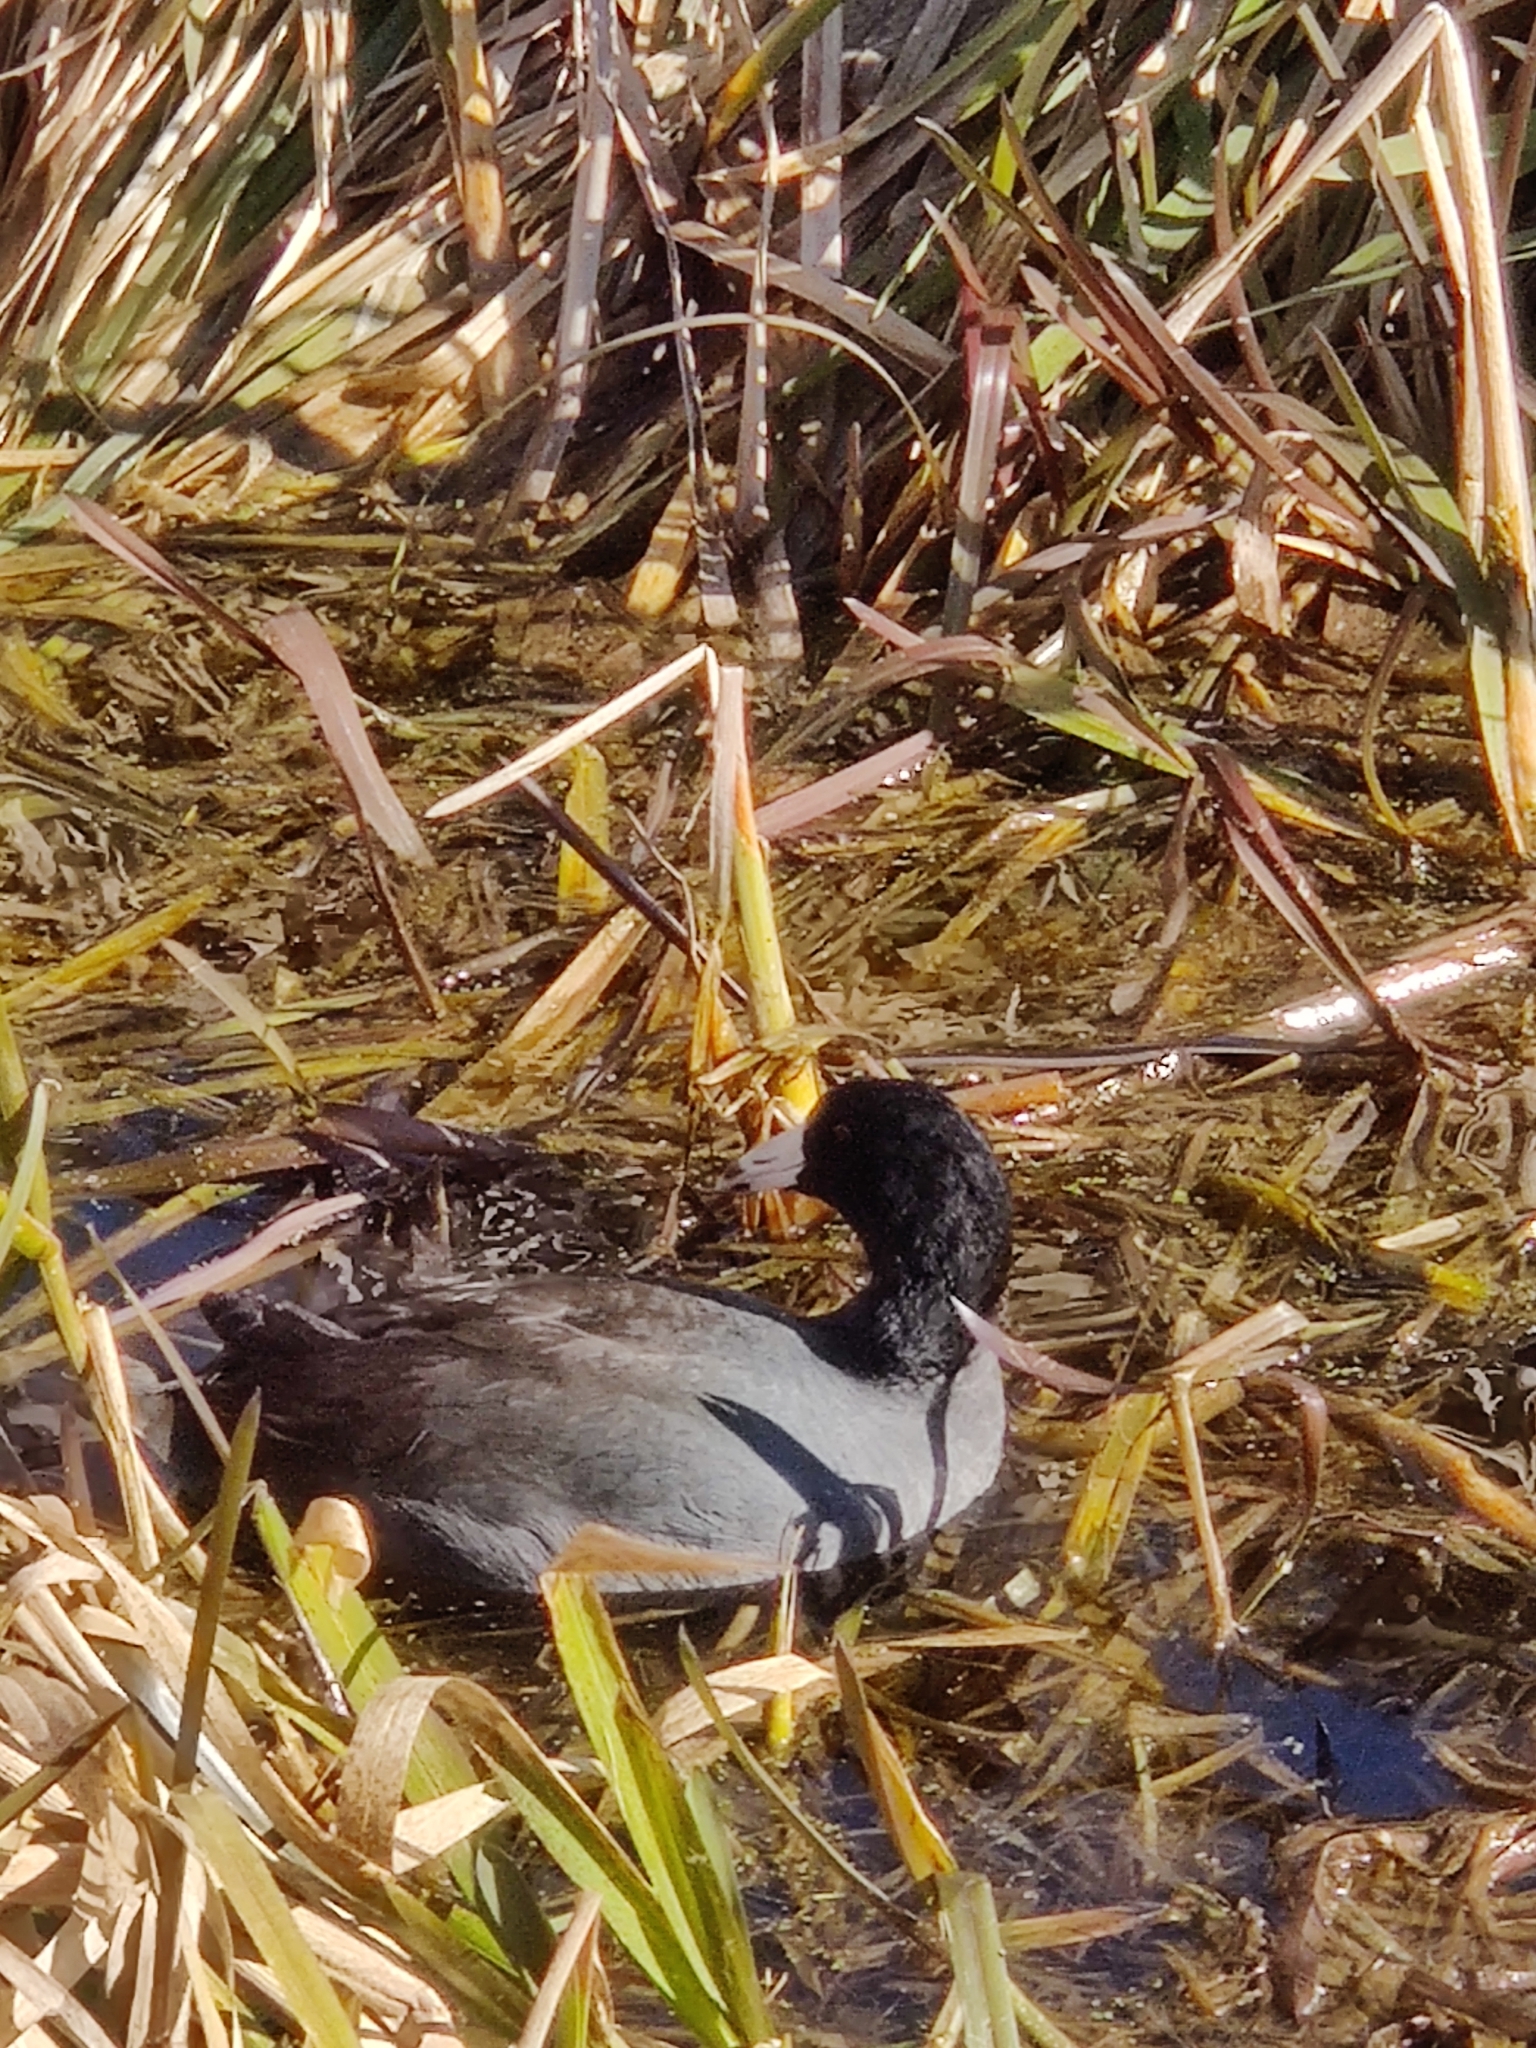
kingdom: Animalia
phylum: Chordata
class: Aves
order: Gruiformes
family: Rallidae
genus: Fulica
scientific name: Fulica americana
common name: American coot
